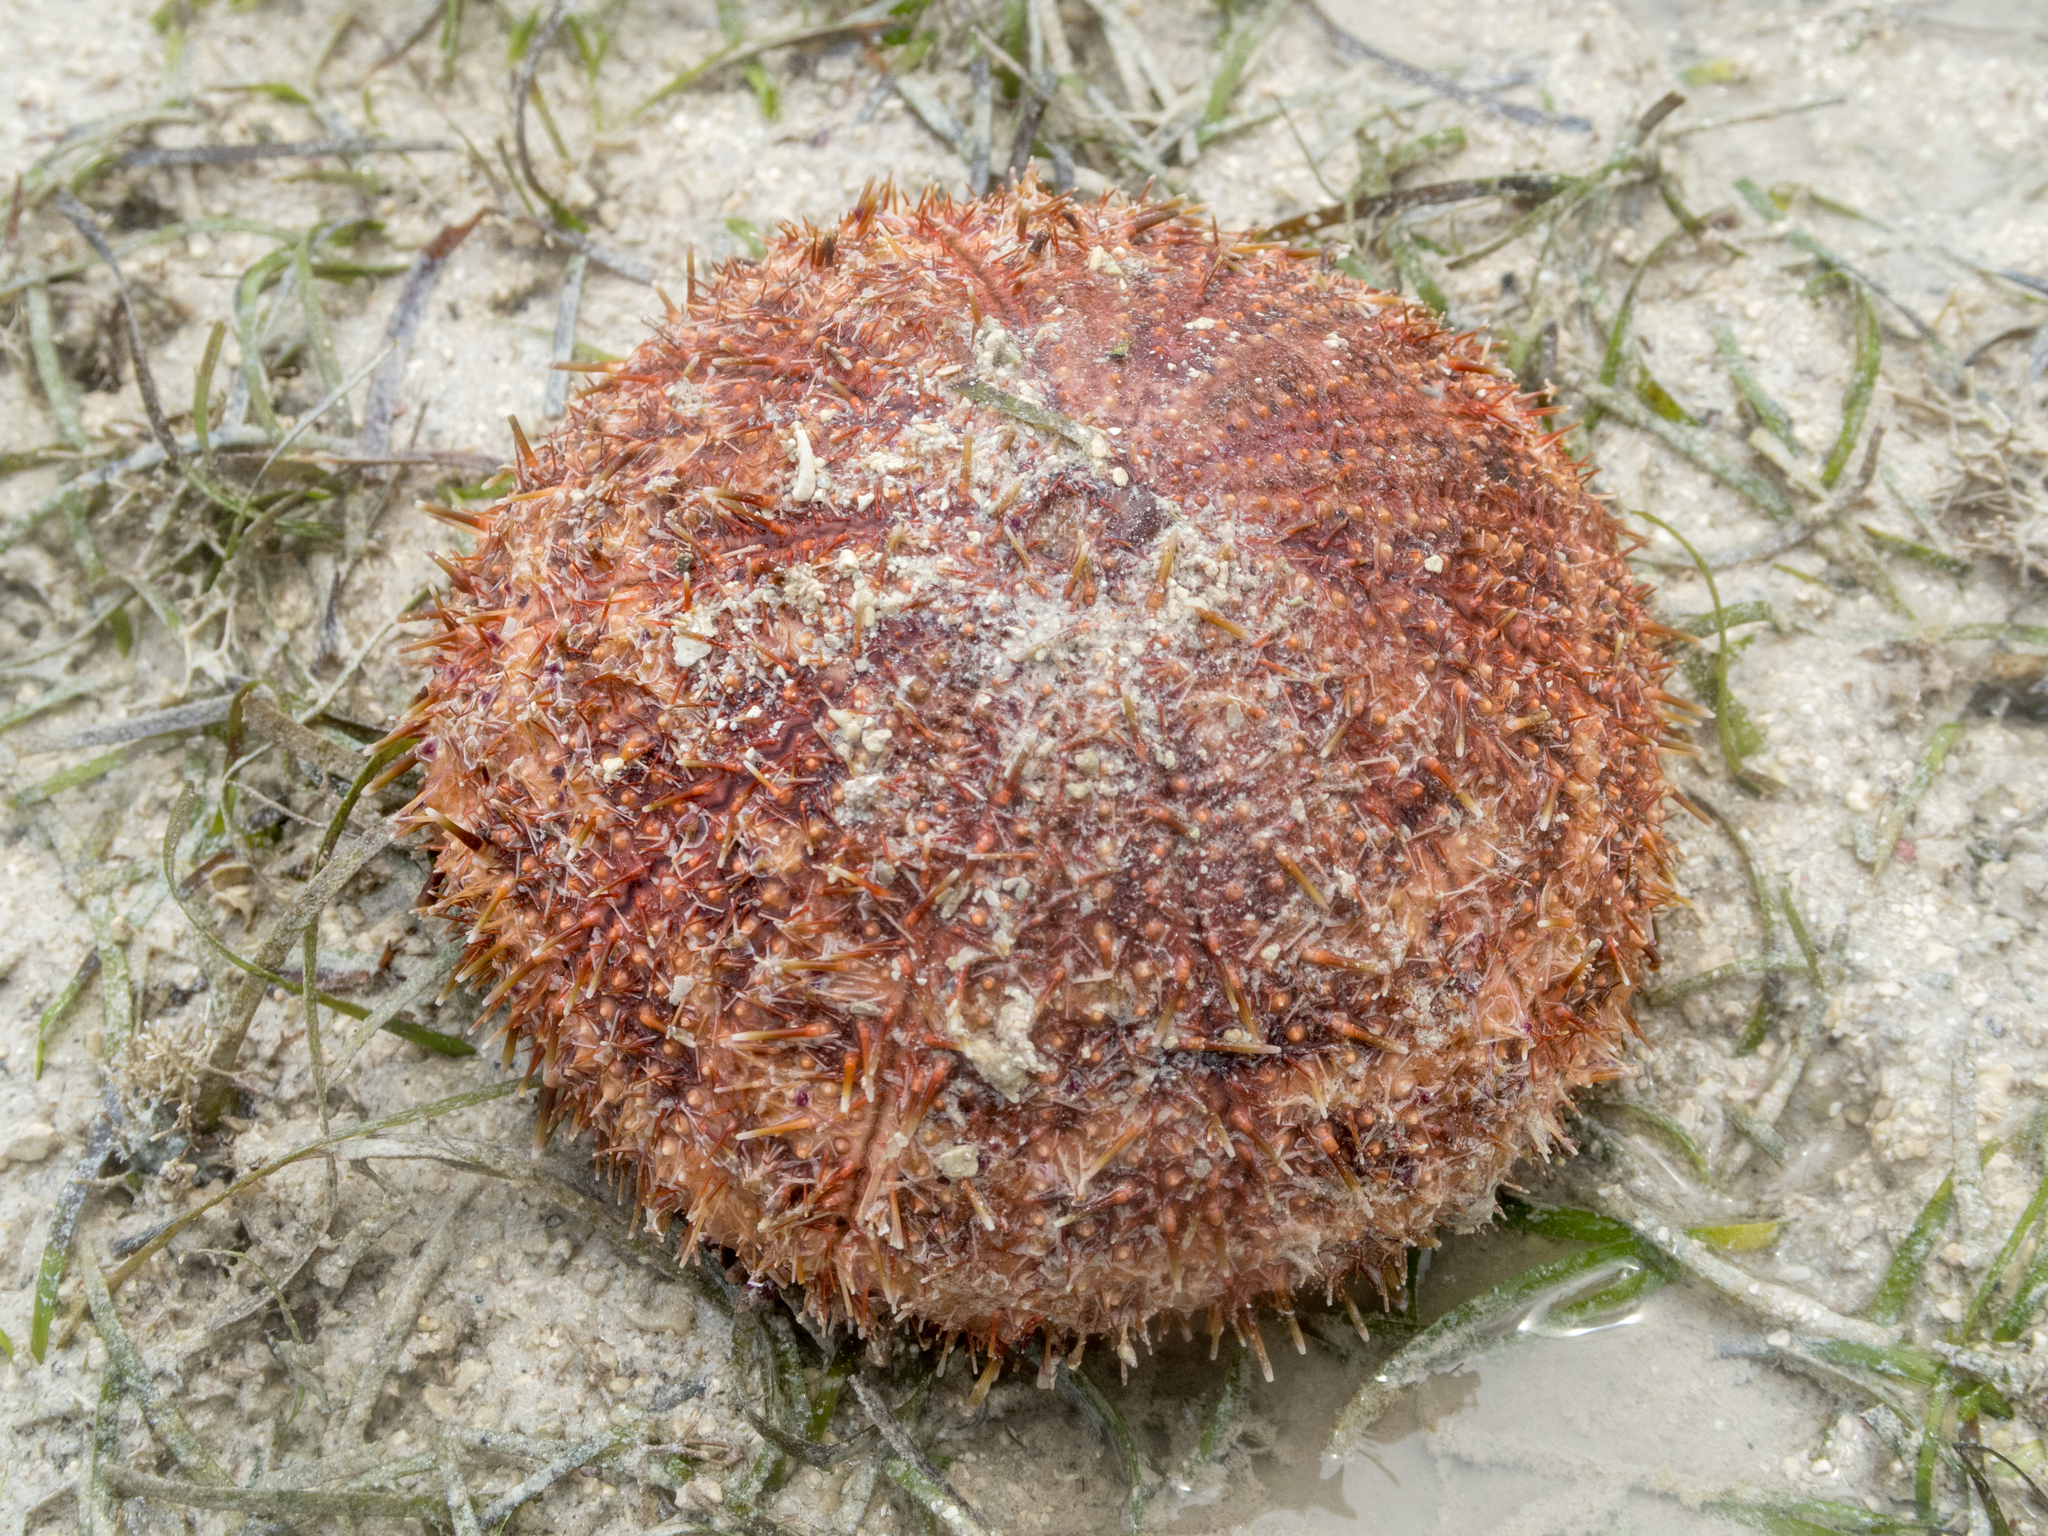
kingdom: Animalia
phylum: Echinodermata
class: Echinoidea
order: Camarodonta
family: Toxopneustidae
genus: Toxopneustes
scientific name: Toxopneustes pileolus
